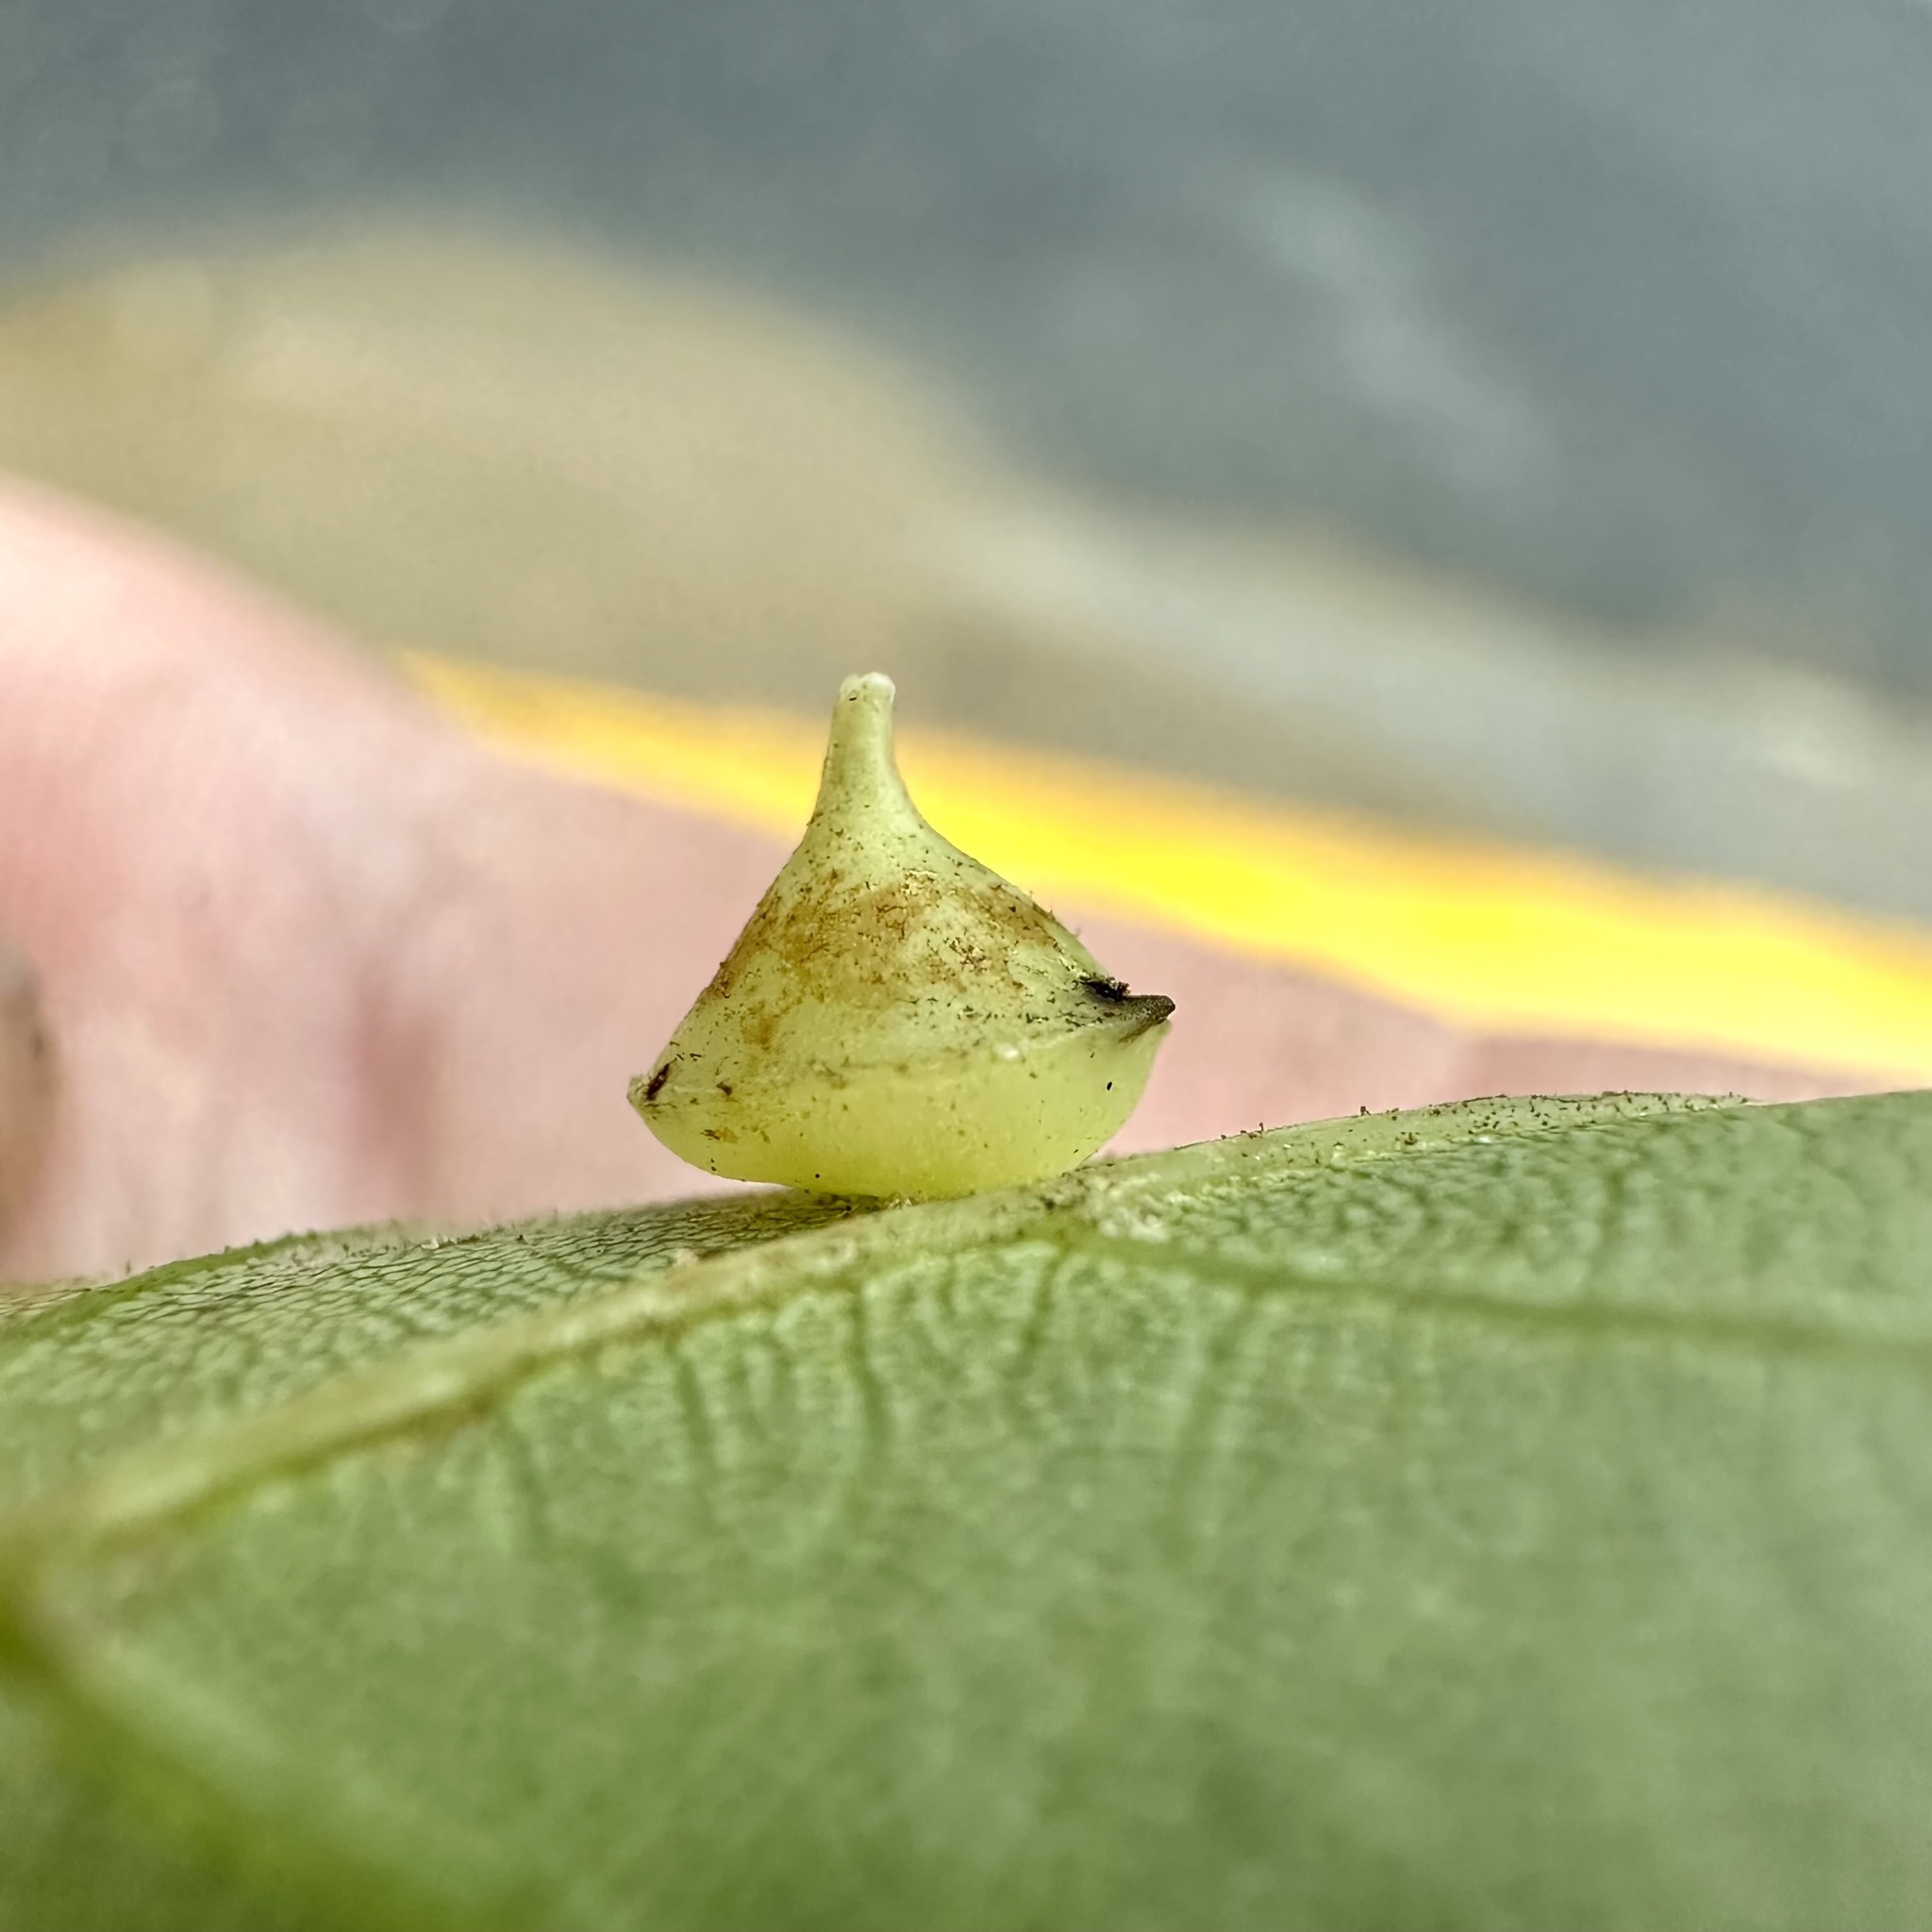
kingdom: Animalia
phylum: Arthropoda
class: Insecta
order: Diptera
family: Cecidomyiidae
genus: Caryomyia
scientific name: Caryomyia sanguinolenta
